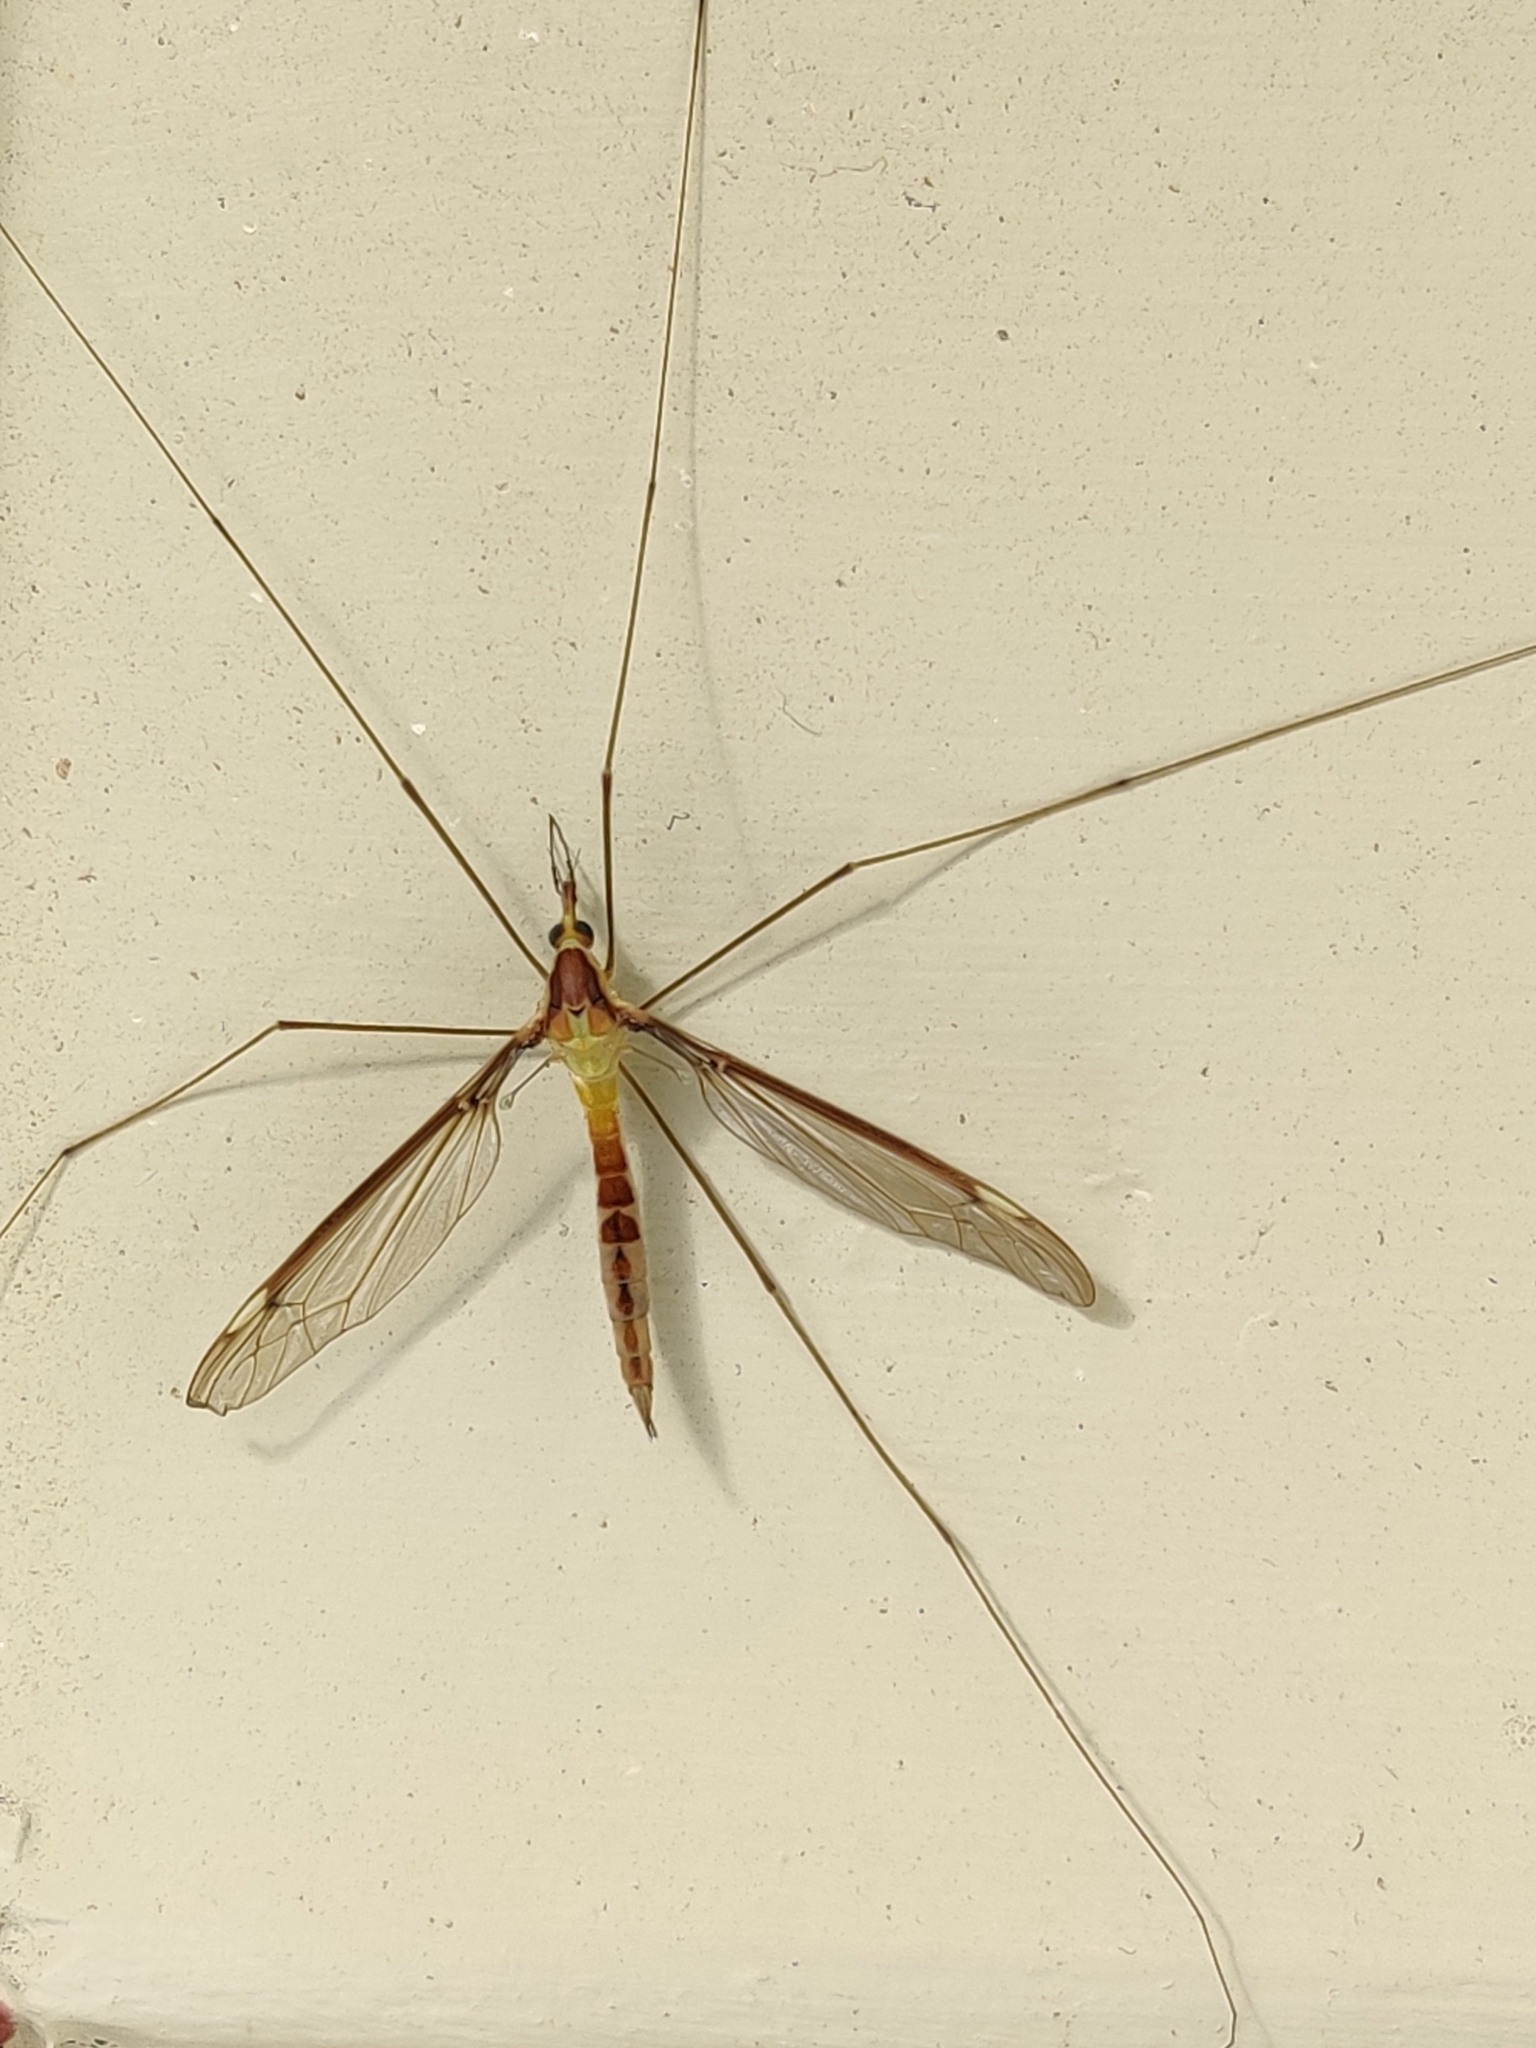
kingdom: Animalia
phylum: Arthropoda
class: Insecta
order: Diptera
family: Tipulidae
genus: Leptotarsus
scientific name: Leptotarsus albistigma
